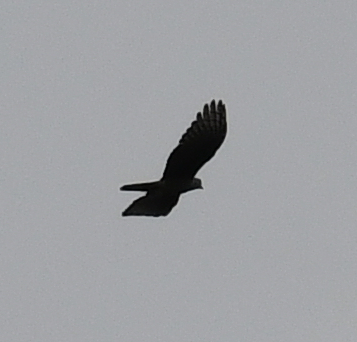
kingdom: Animalia
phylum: Chordata
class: Aves
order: Accipitriformes
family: Accipitridae
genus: Aviceda
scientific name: Aviceda cuculoides
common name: African cuckoo-hawk
